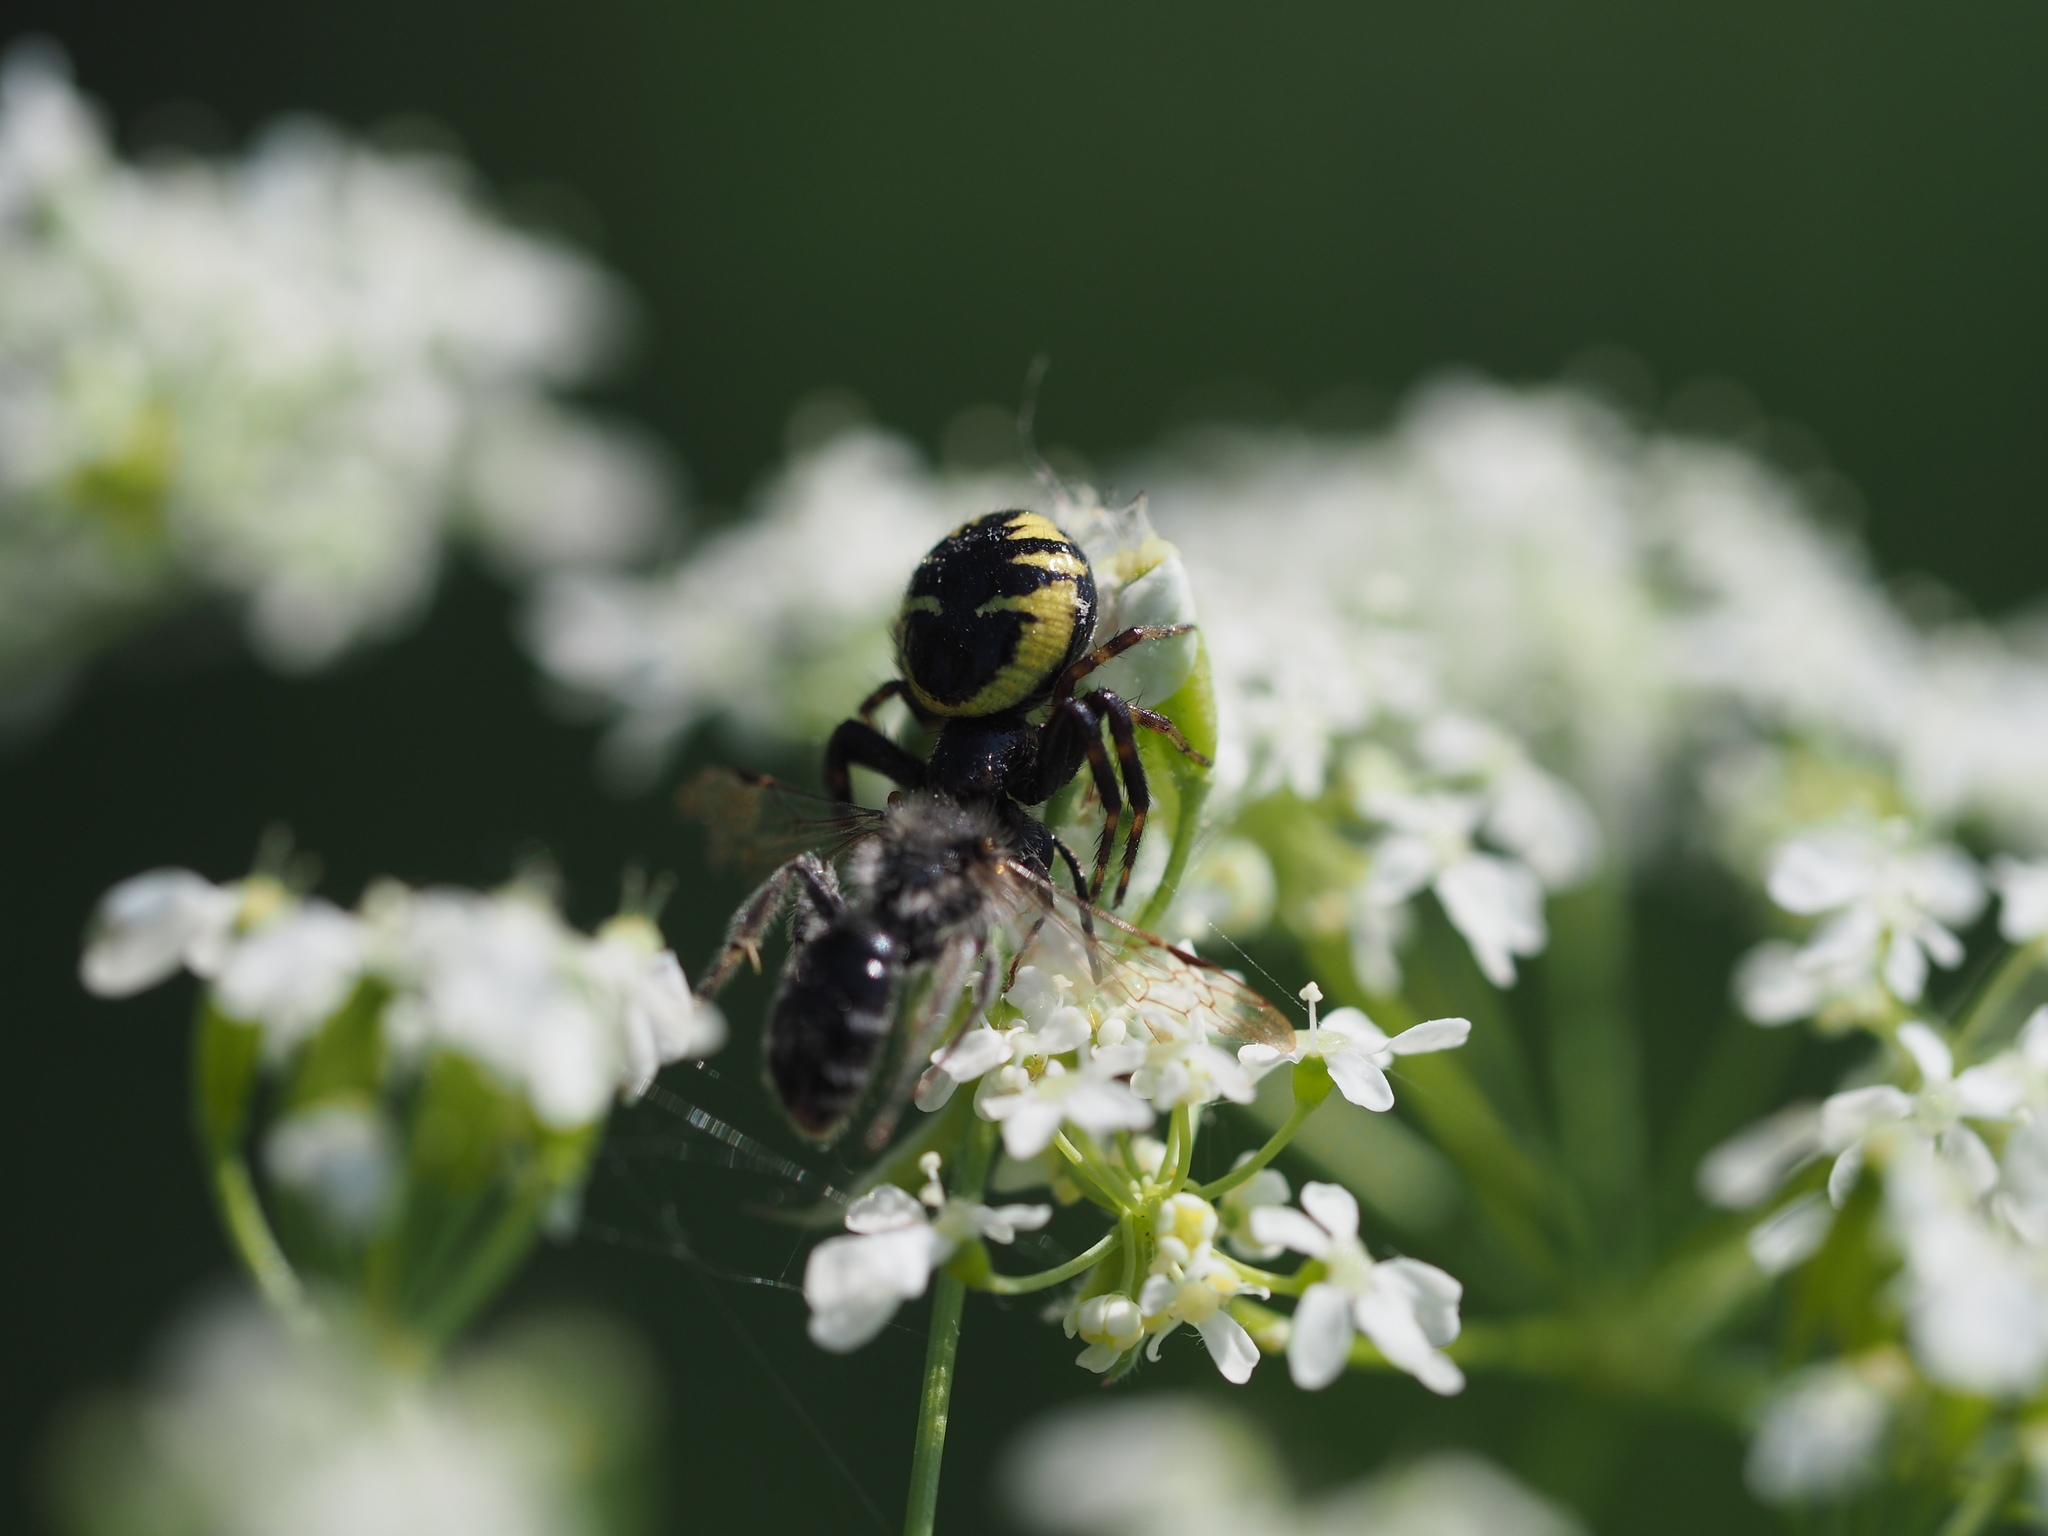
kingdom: Animalia
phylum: Arthropoda
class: Arachnida
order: Araneae
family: Thomisidae
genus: Synema
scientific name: Synema globosum
